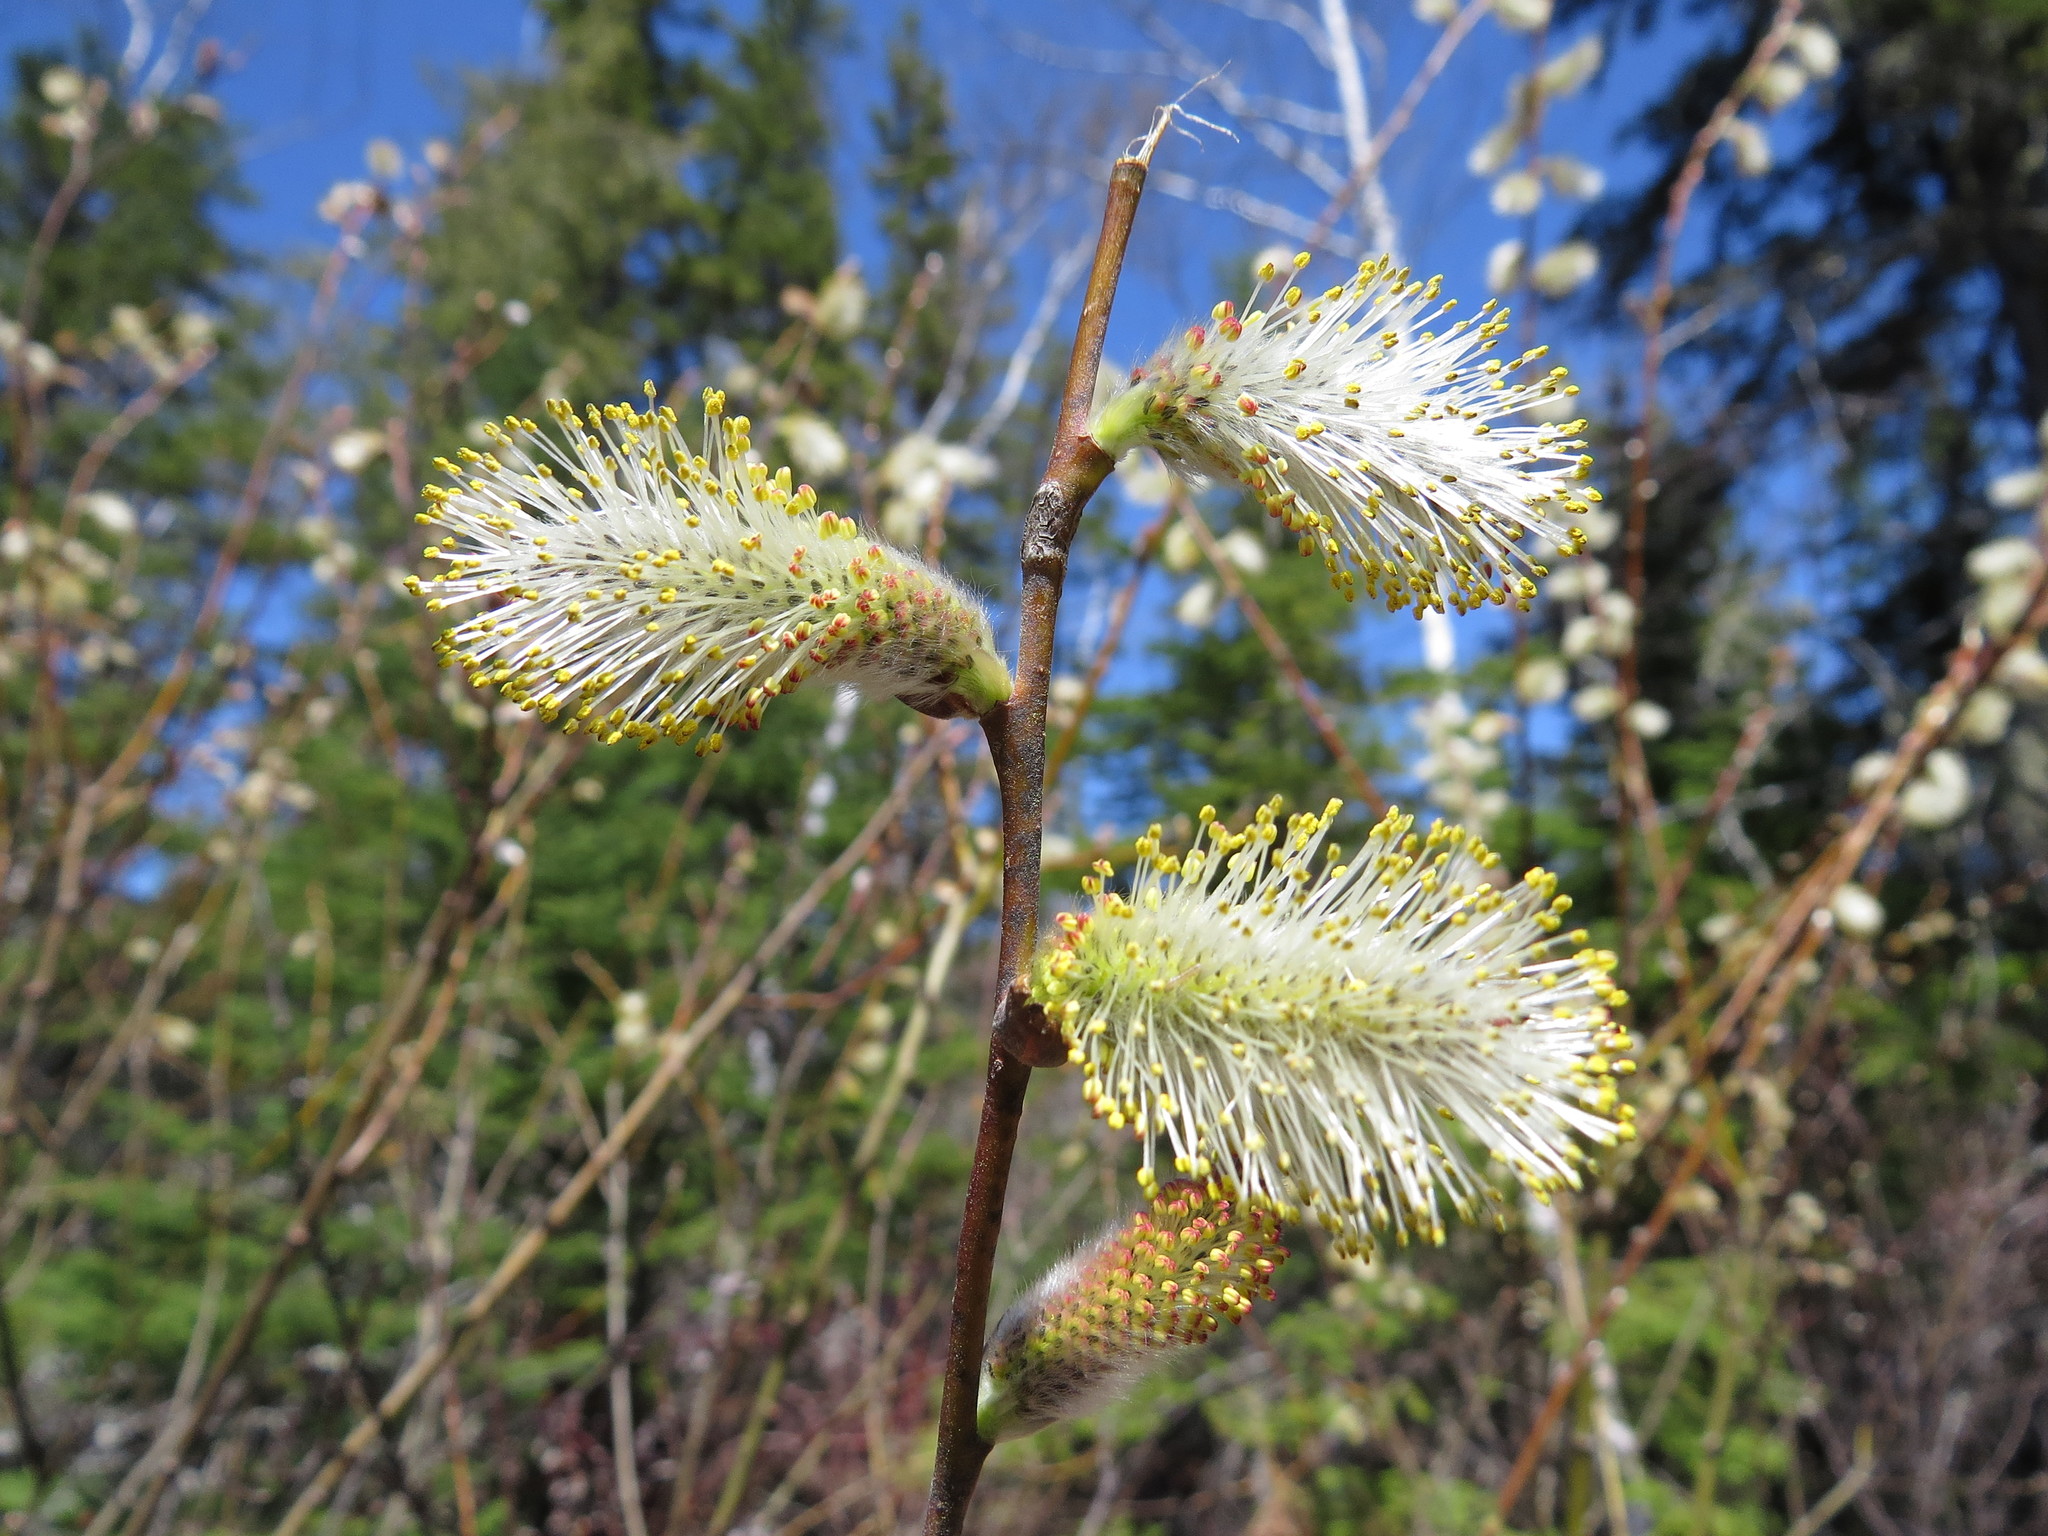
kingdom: Plantae
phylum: Tracheophyta
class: Magnoliopsida
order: Malpighiales
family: Salicaceae
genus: Salix
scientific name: Salix discolor
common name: Glaucous willow
